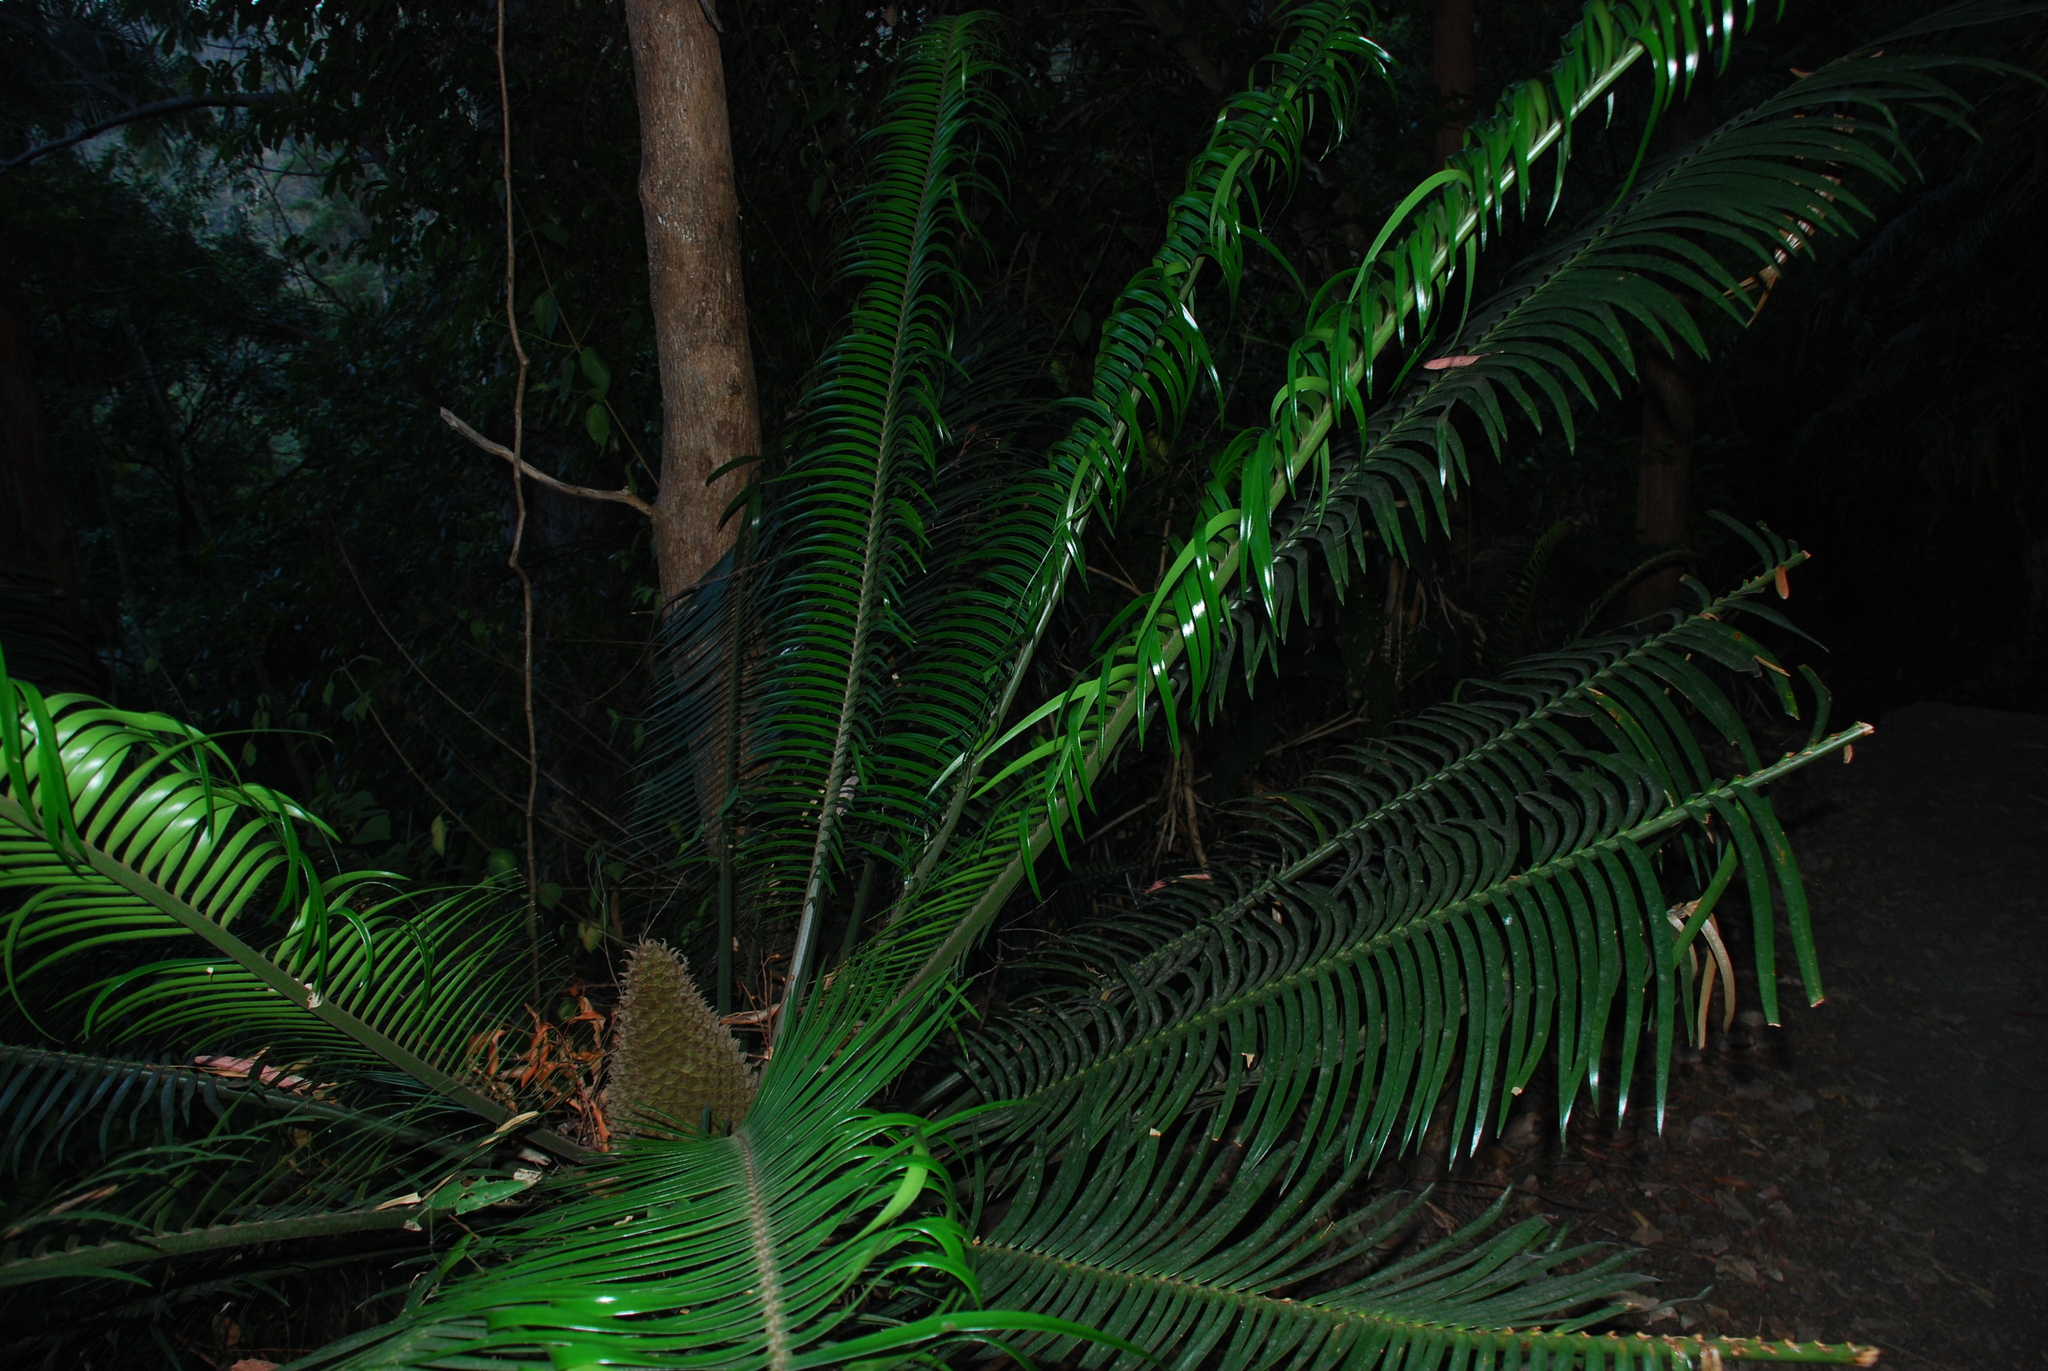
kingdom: Plantae
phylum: Tracheophyta
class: Cycadopsida
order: Cycadales
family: Zamiaceae
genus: Lepidozamia
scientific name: Lepidozamia peroffskyana
